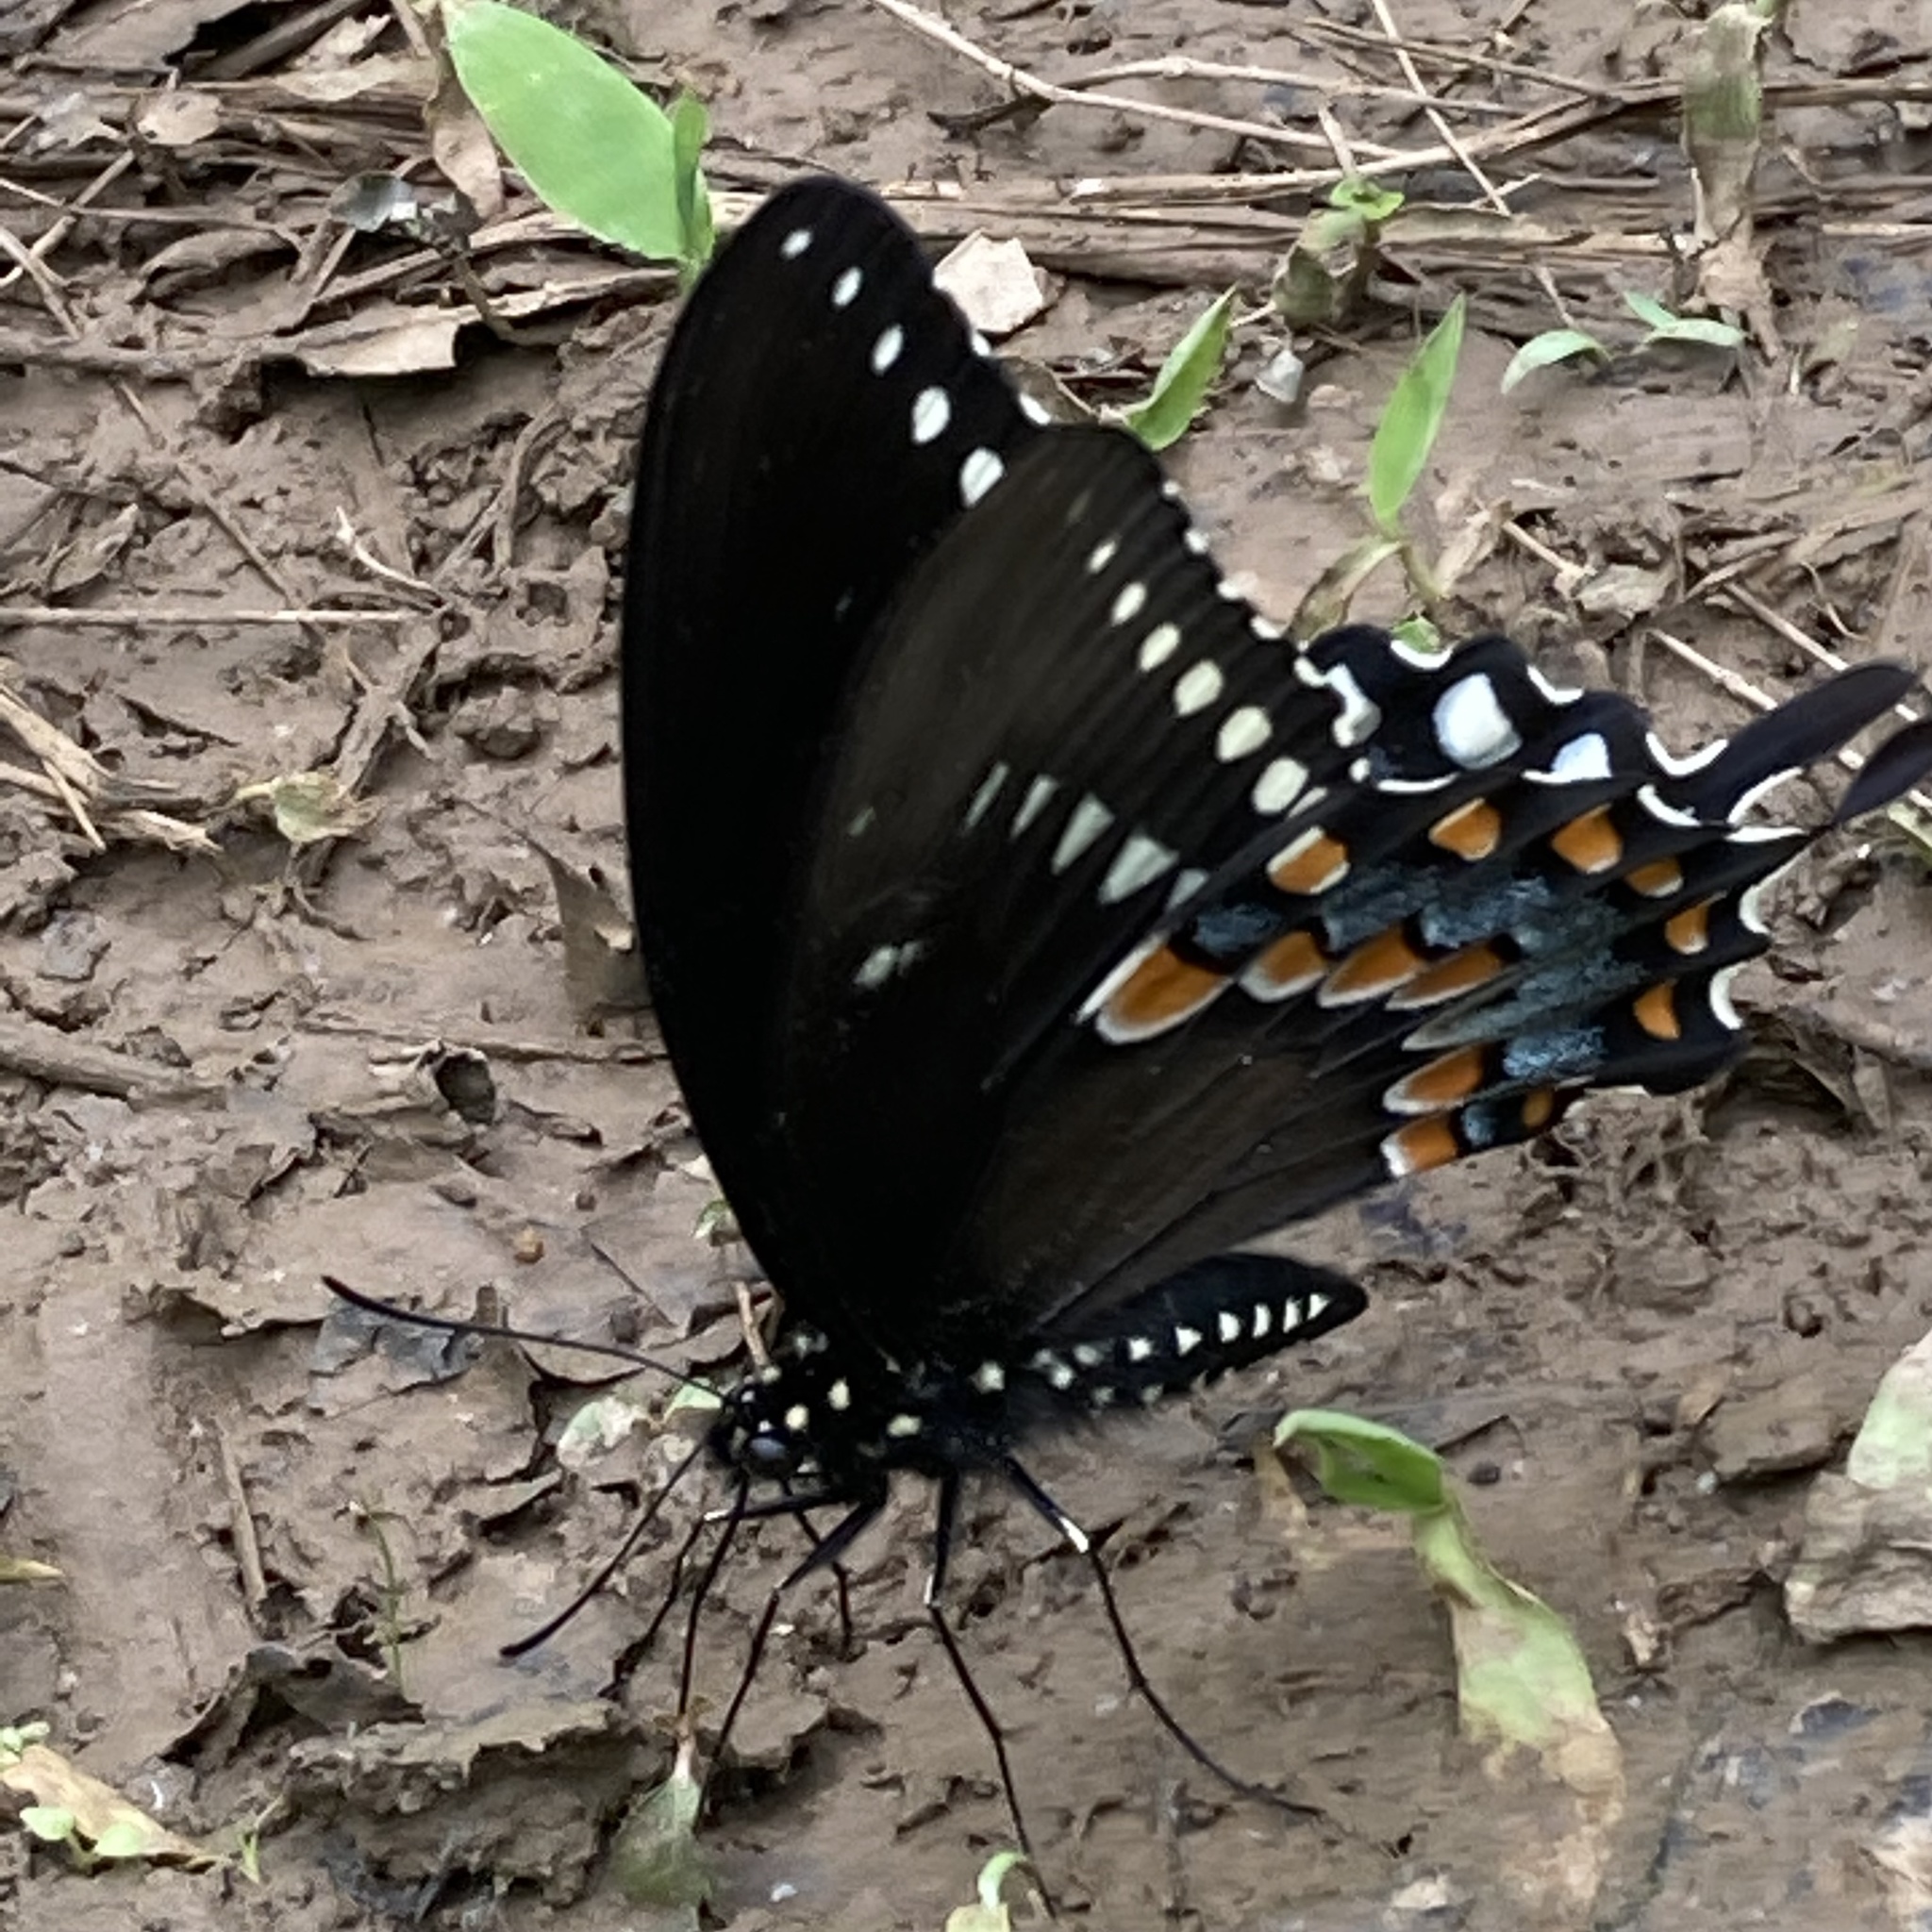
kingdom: Animalia
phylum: Arthropoda
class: Insecta
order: Lepidoptera
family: Papilionidae
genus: Papilio
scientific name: Papilio troilus
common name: Spicebush swallowtail
